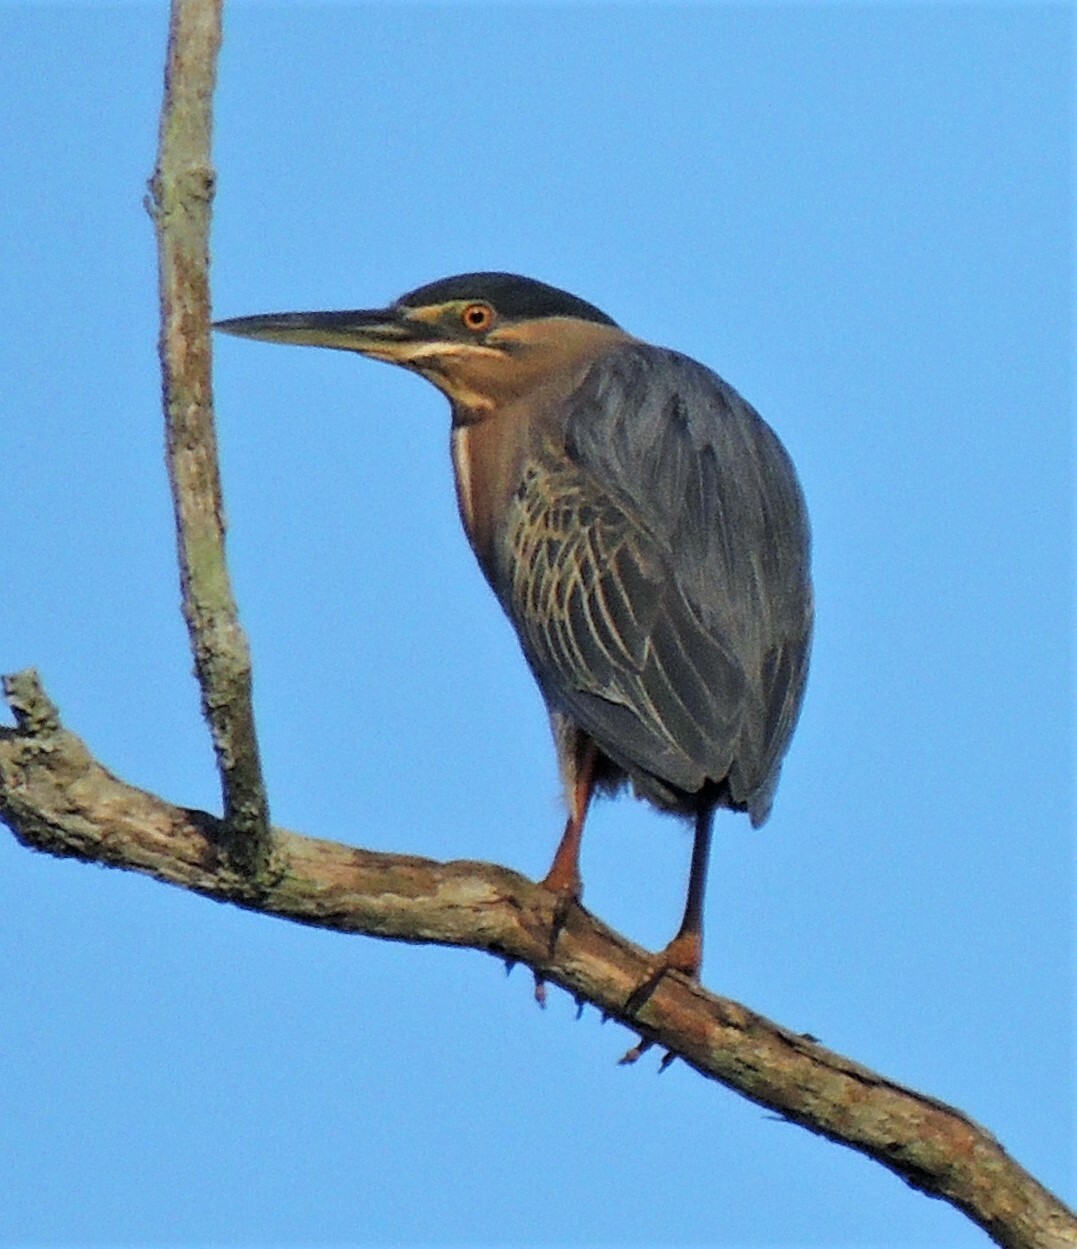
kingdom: Animalia
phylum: Chordata
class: Aves
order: Pelecaniformes
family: Ardeidae
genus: Butorides
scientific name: Butorides striata
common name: Striated heron
